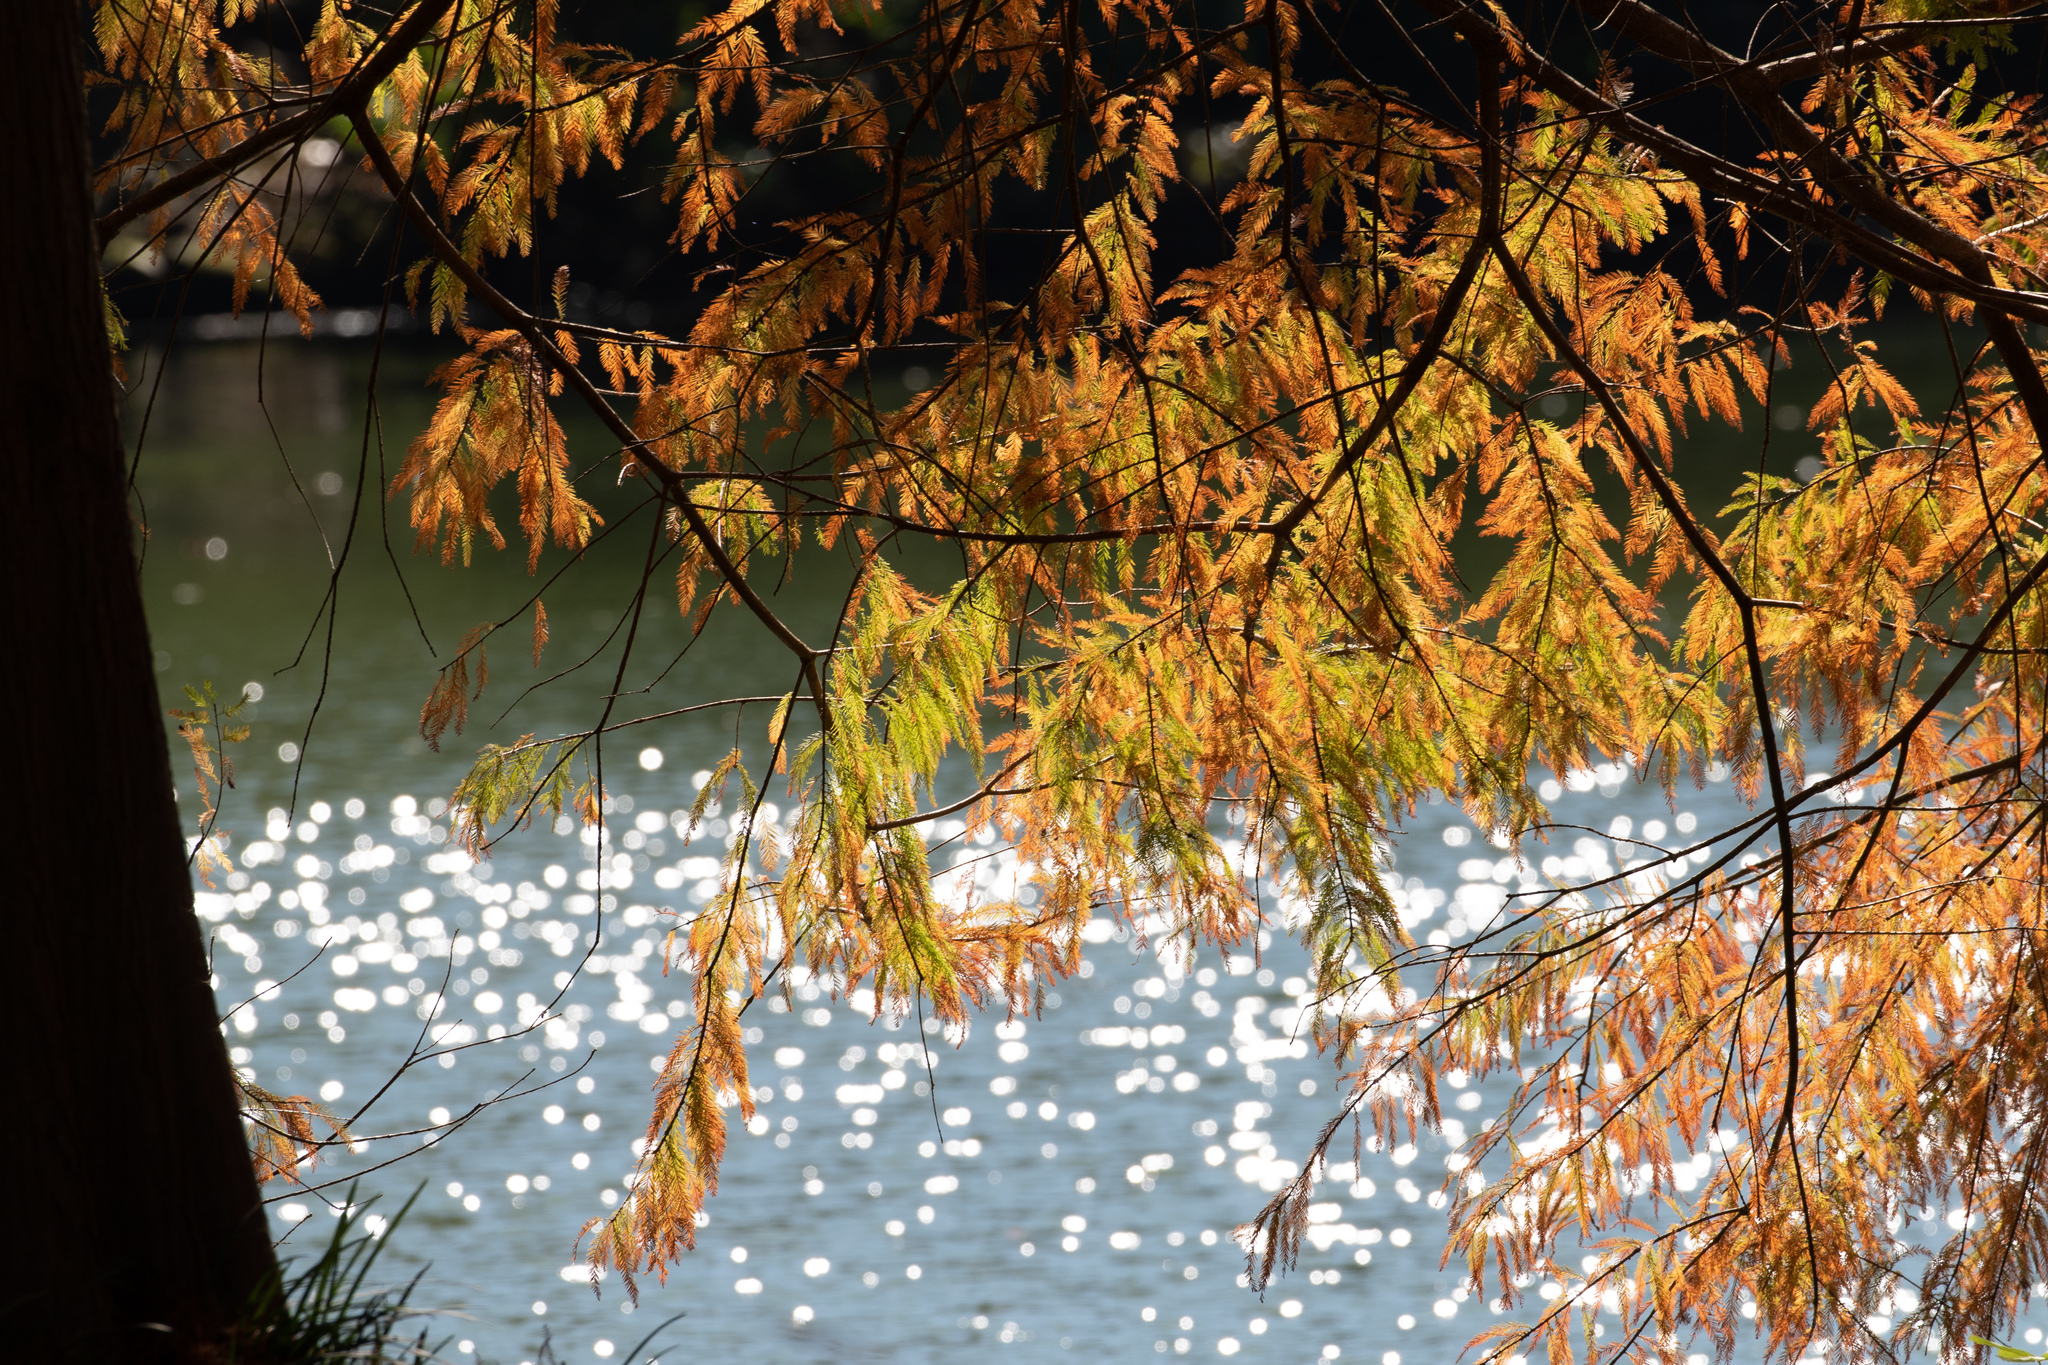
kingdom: Plantae
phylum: Tracheophyta
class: Pinopsida
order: Pinales
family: Cupressaceae
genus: Taxodium
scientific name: Taxodium distichum
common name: Bald cypress
